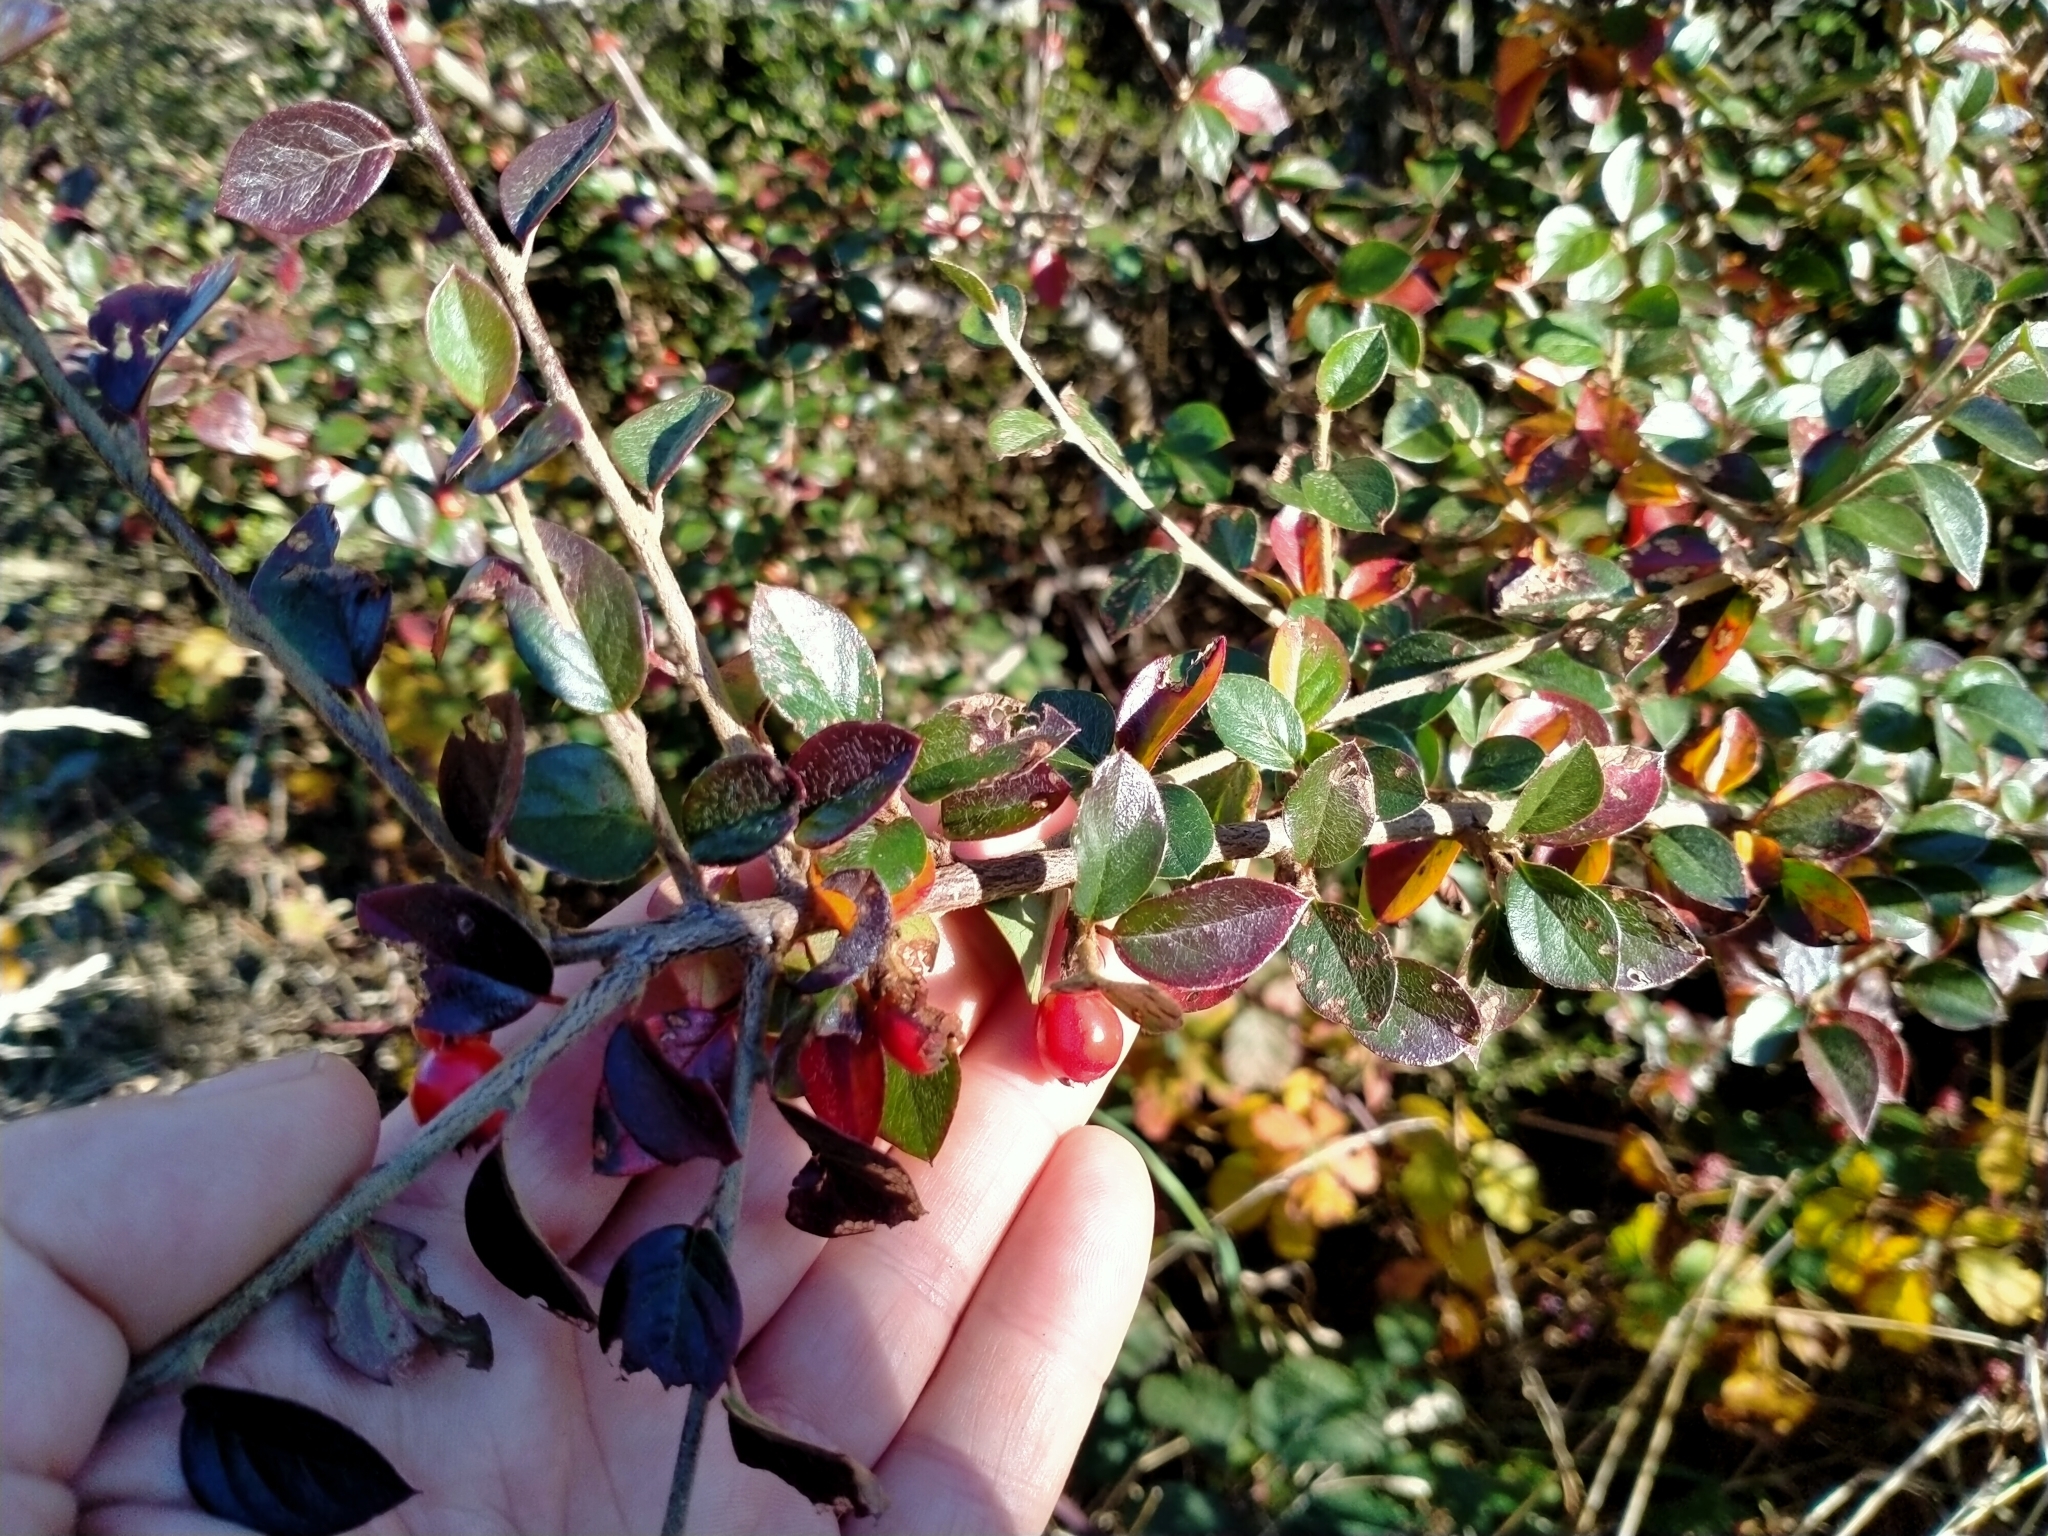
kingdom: Plantae
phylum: Tracheophyta
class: Magnoliopsida
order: Rosales
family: Rosaceae
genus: Cotoneaster
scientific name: Cotoneaster simonsii
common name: Himalayan cotoneaster
